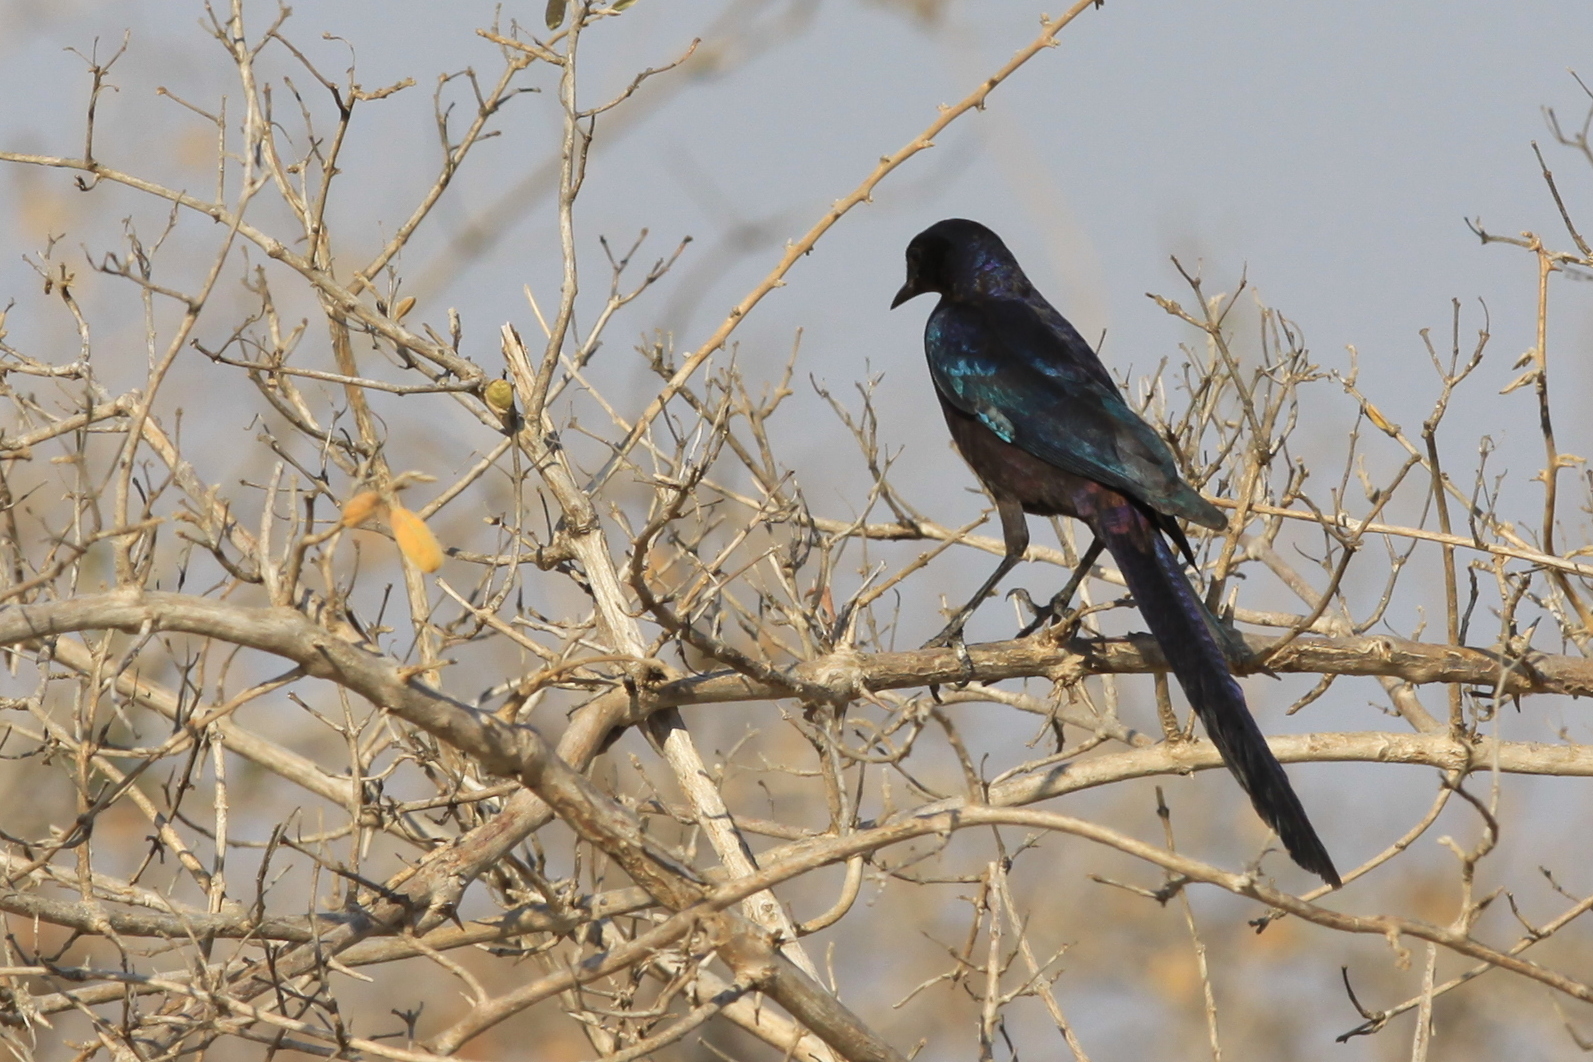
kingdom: Animalia
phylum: Chordata
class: Aves
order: Passeriformes
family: Sturnidae
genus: Lamprotornis
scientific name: Lamprotornis mevesii
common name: Meves's starling
